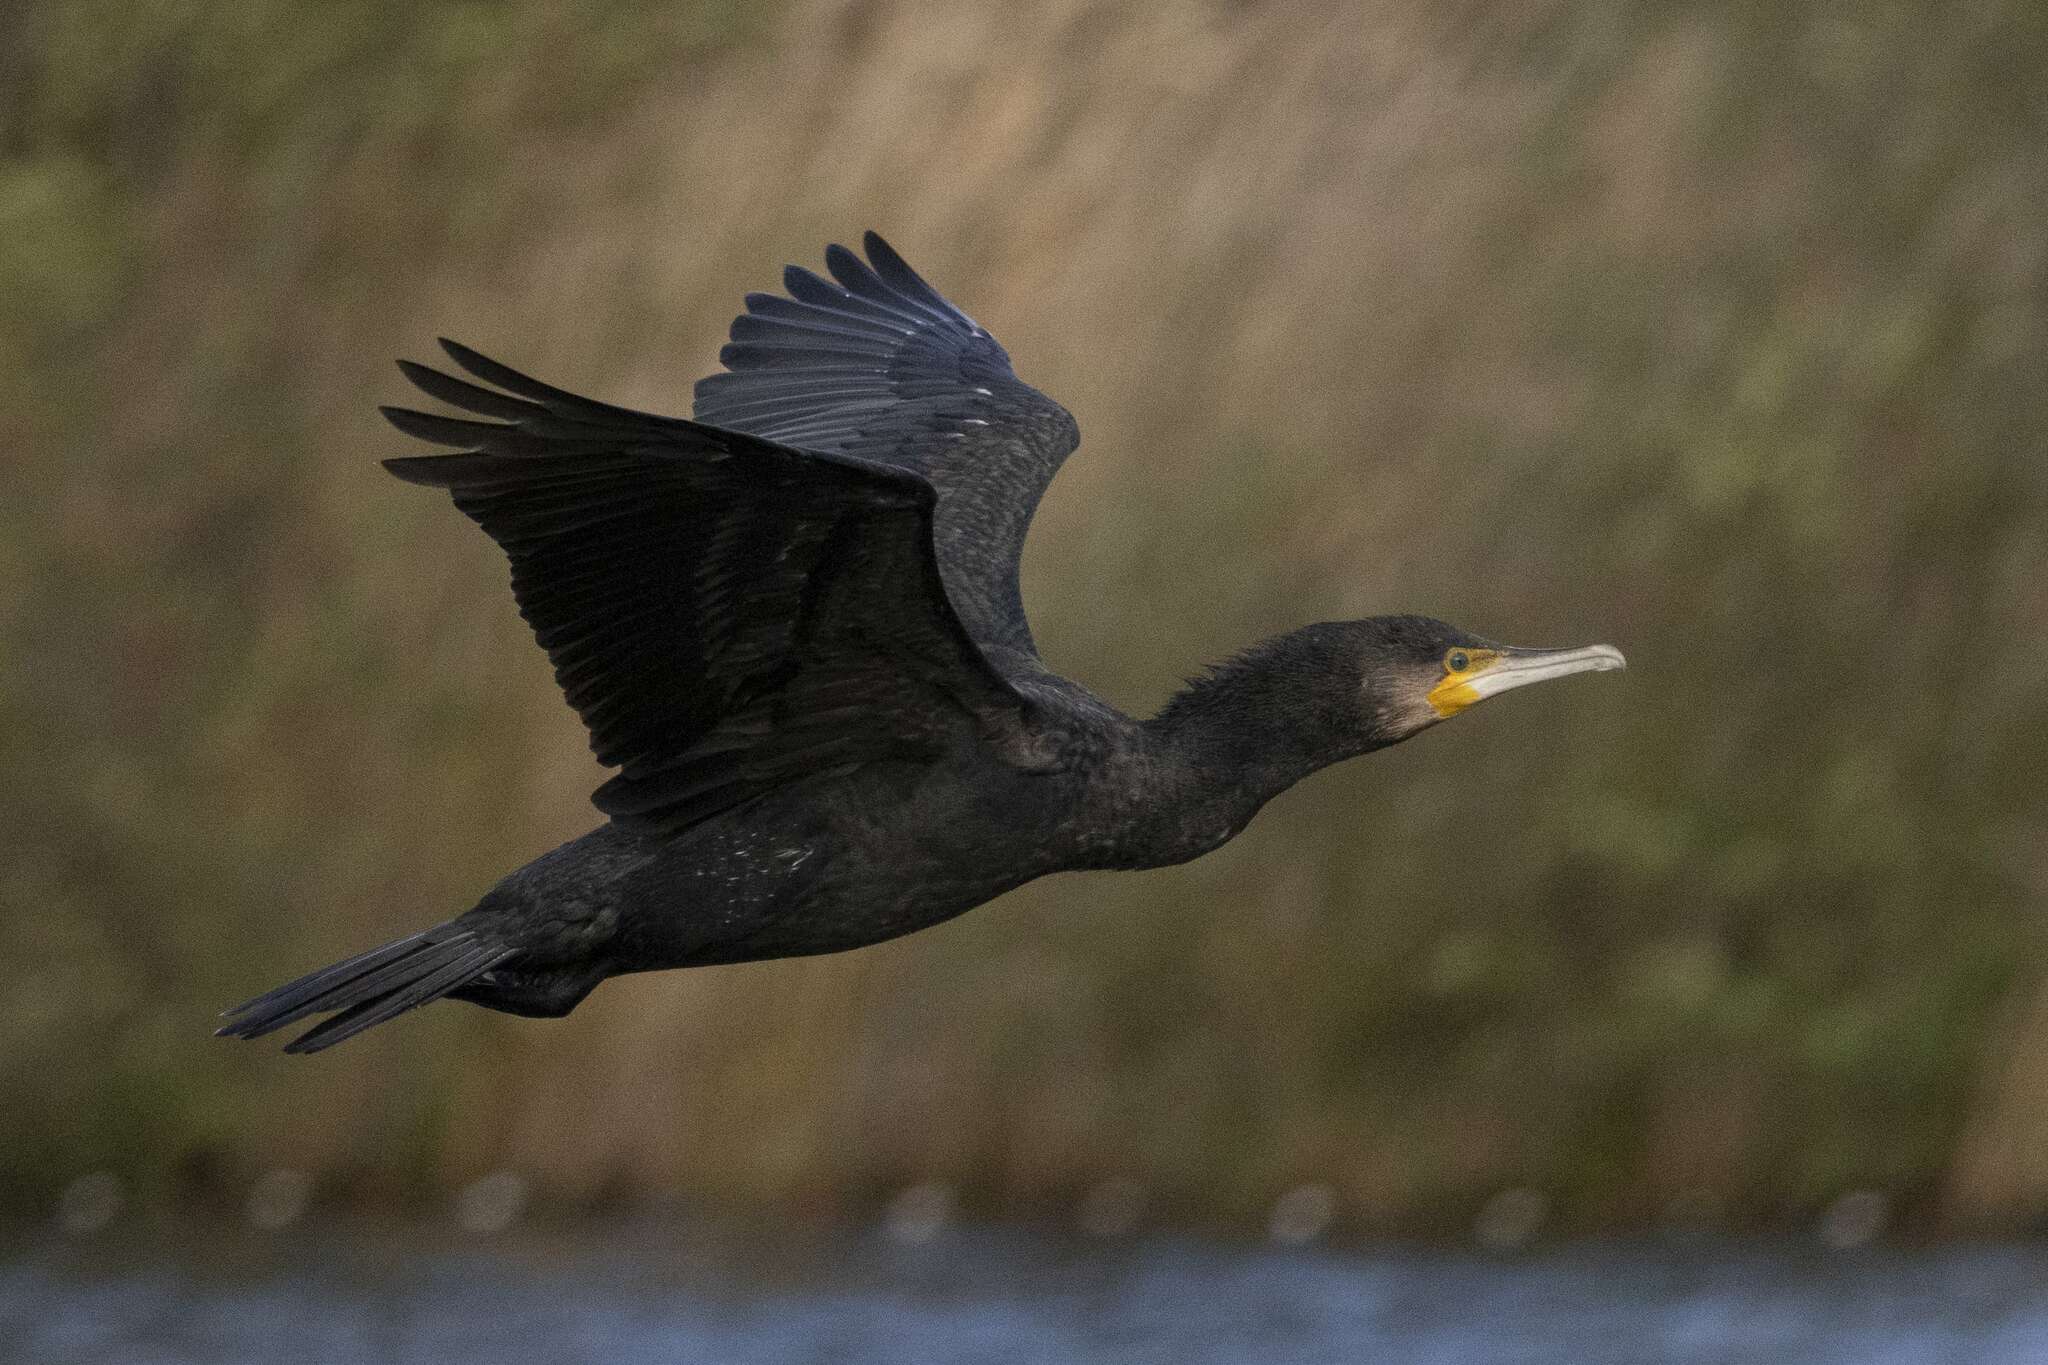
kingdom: Animalia
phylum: Chordata
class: Aves
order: Suliformes
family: Phalacrocoracidae
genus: Phalacrocorax
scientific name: Phalacrocorax carbo
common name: Great cormorant
